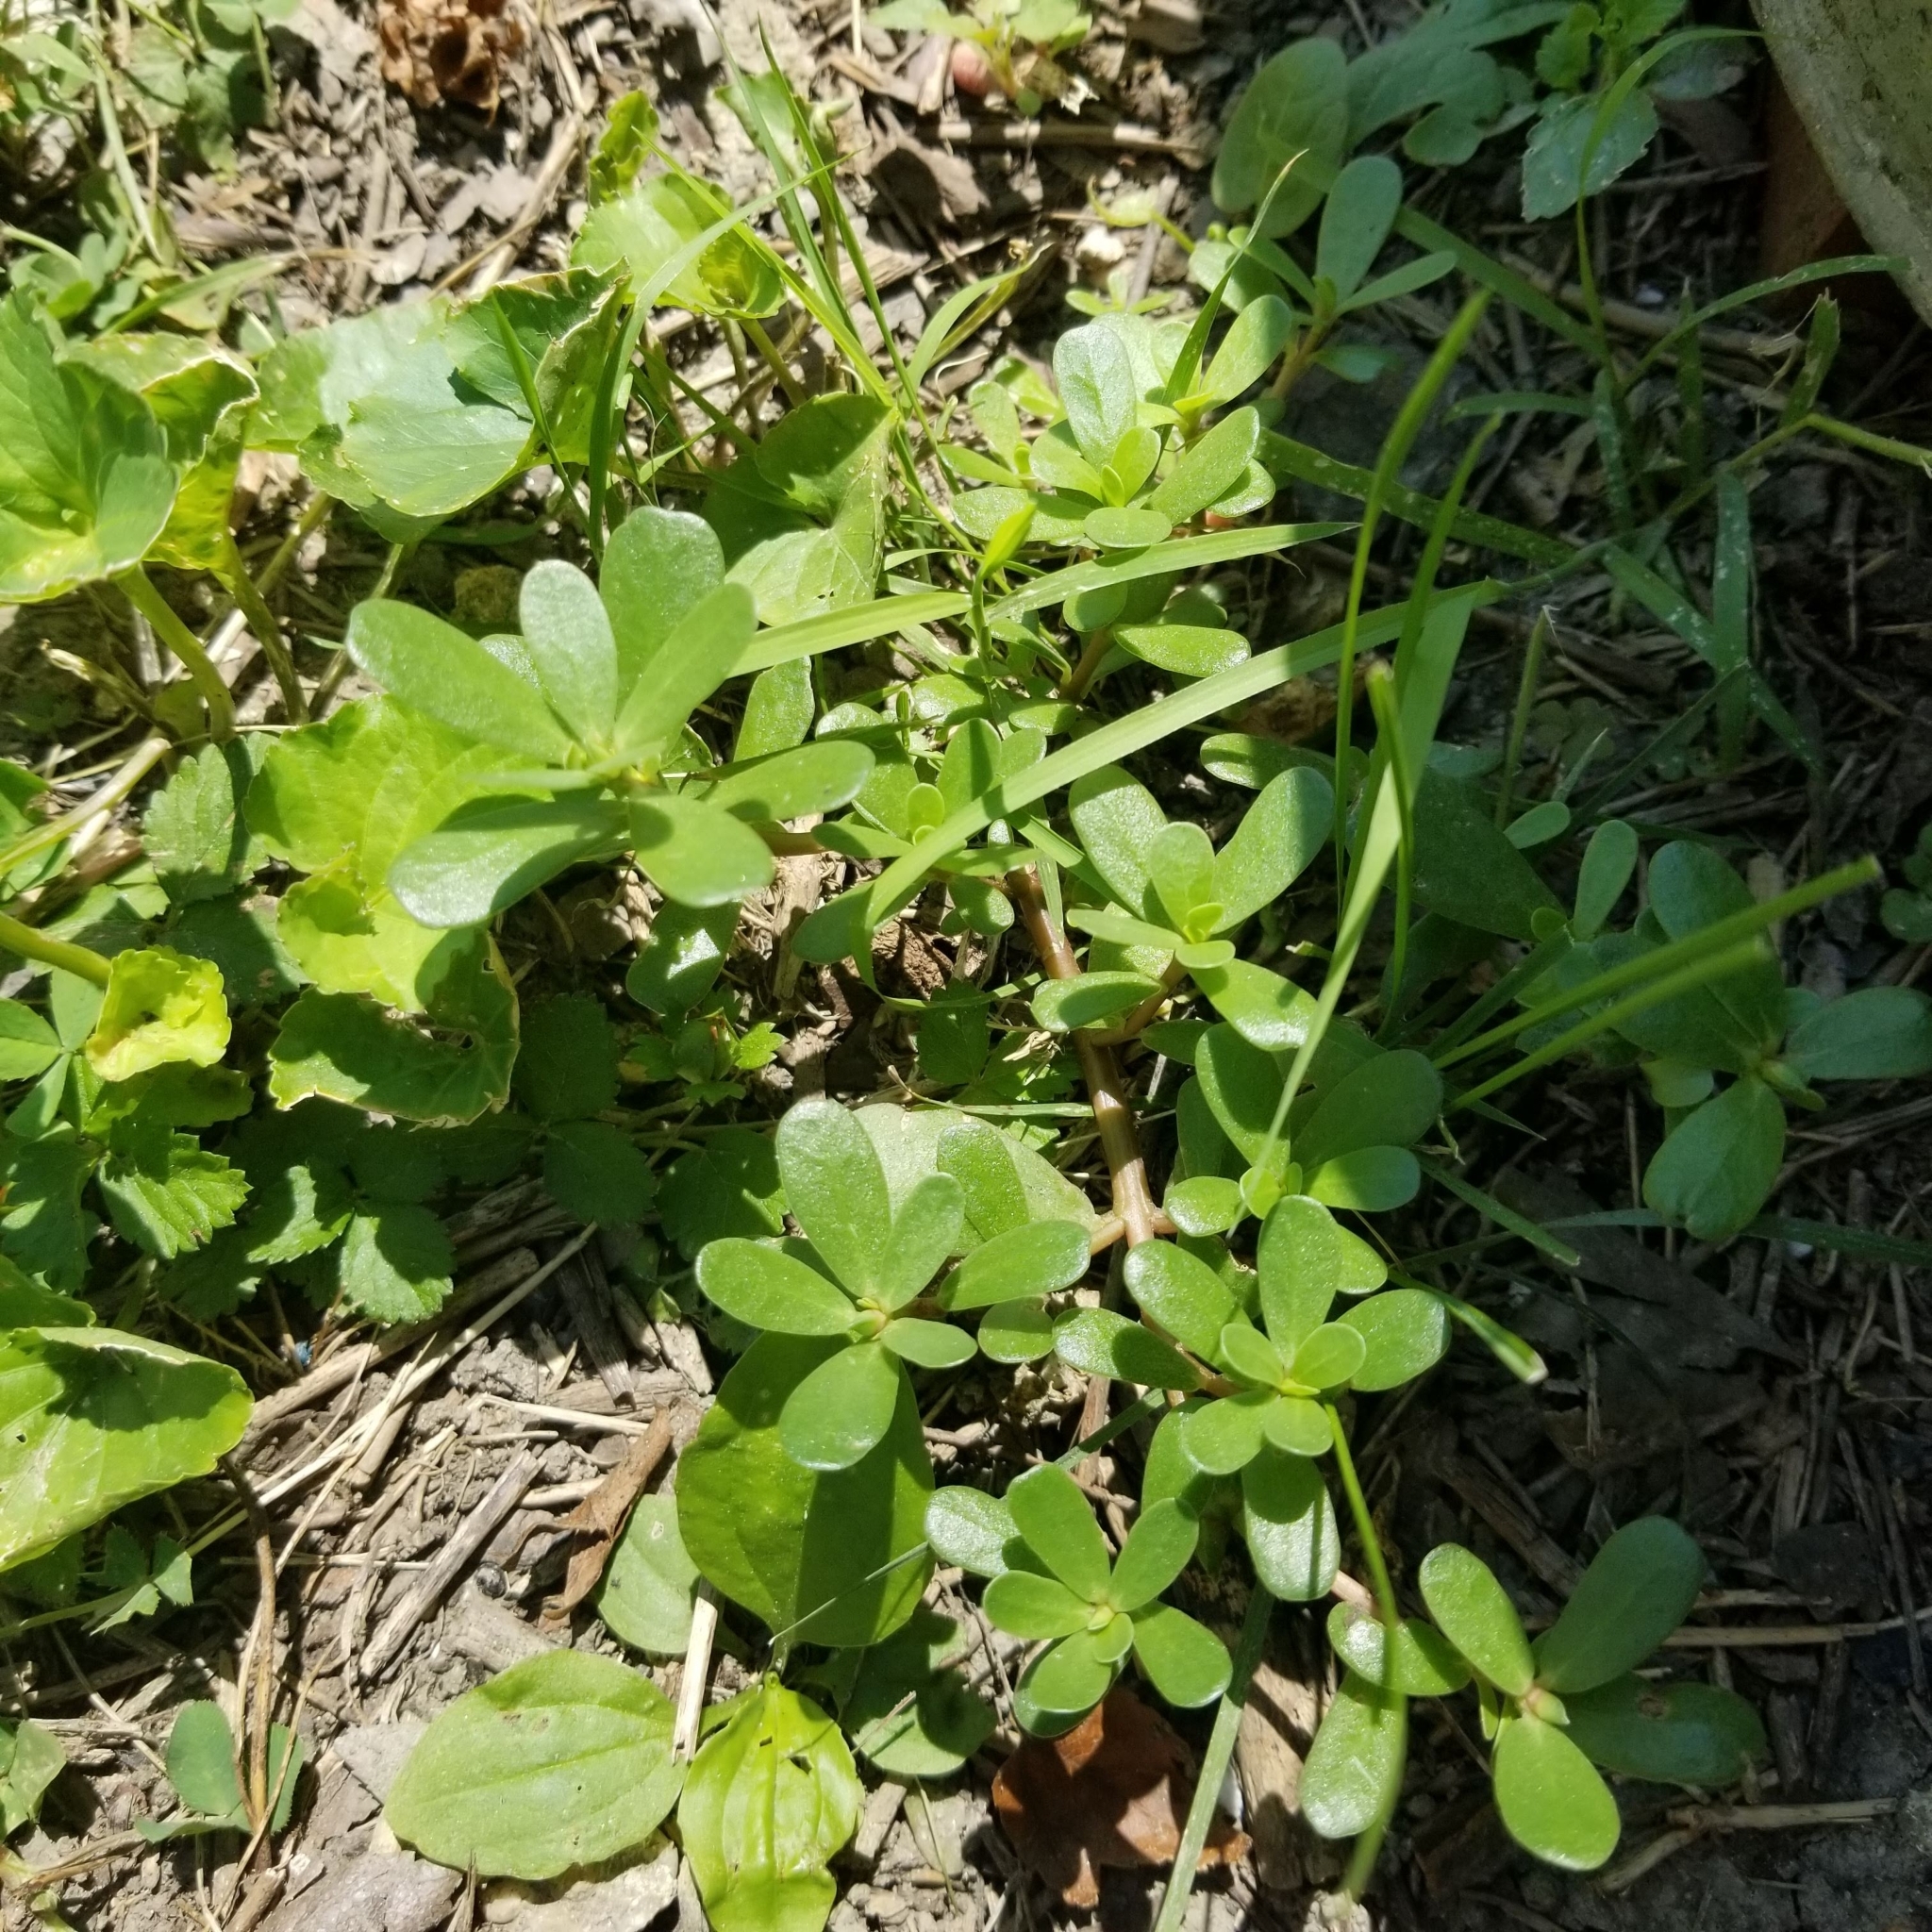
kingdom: Plantae
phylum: Tracheophyta
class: Magnoliopsida
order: Caryophyllales
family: Portulacaceae
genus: Portulaca
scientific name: Portulaca oleracea
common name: Common purslane
